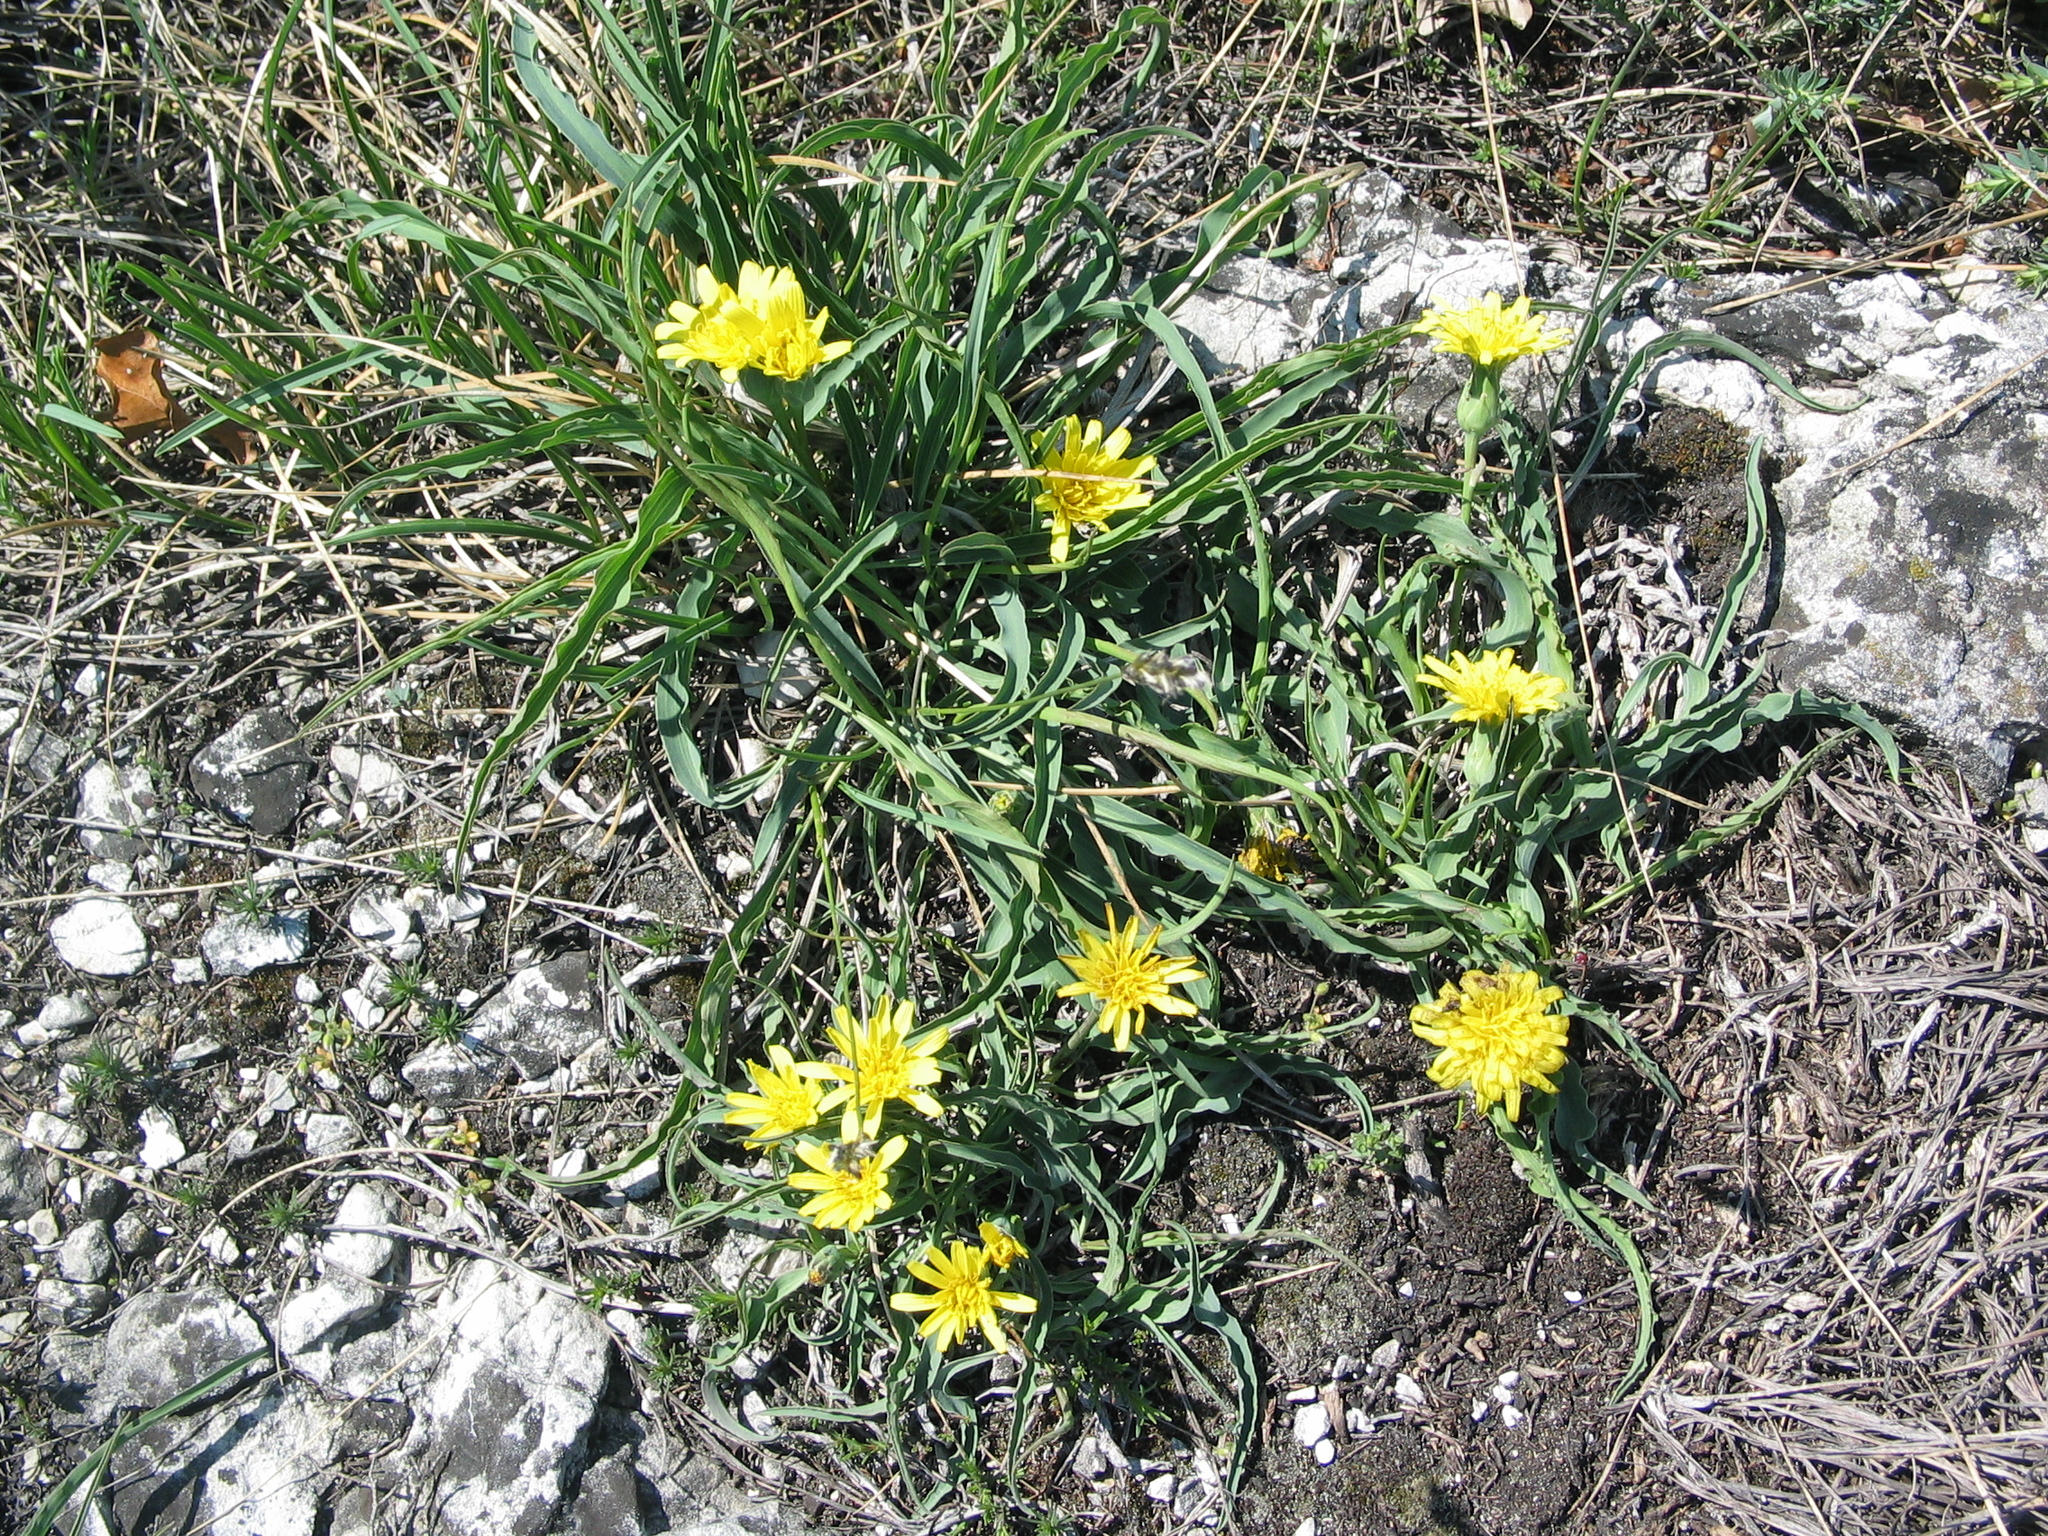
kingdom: Plantae
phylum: Tracheophyta
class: Magnoliopsida
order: Asterales
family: Asteraceae
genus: Takhtajaniantha
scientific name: Takhtajaniantha austriaca
